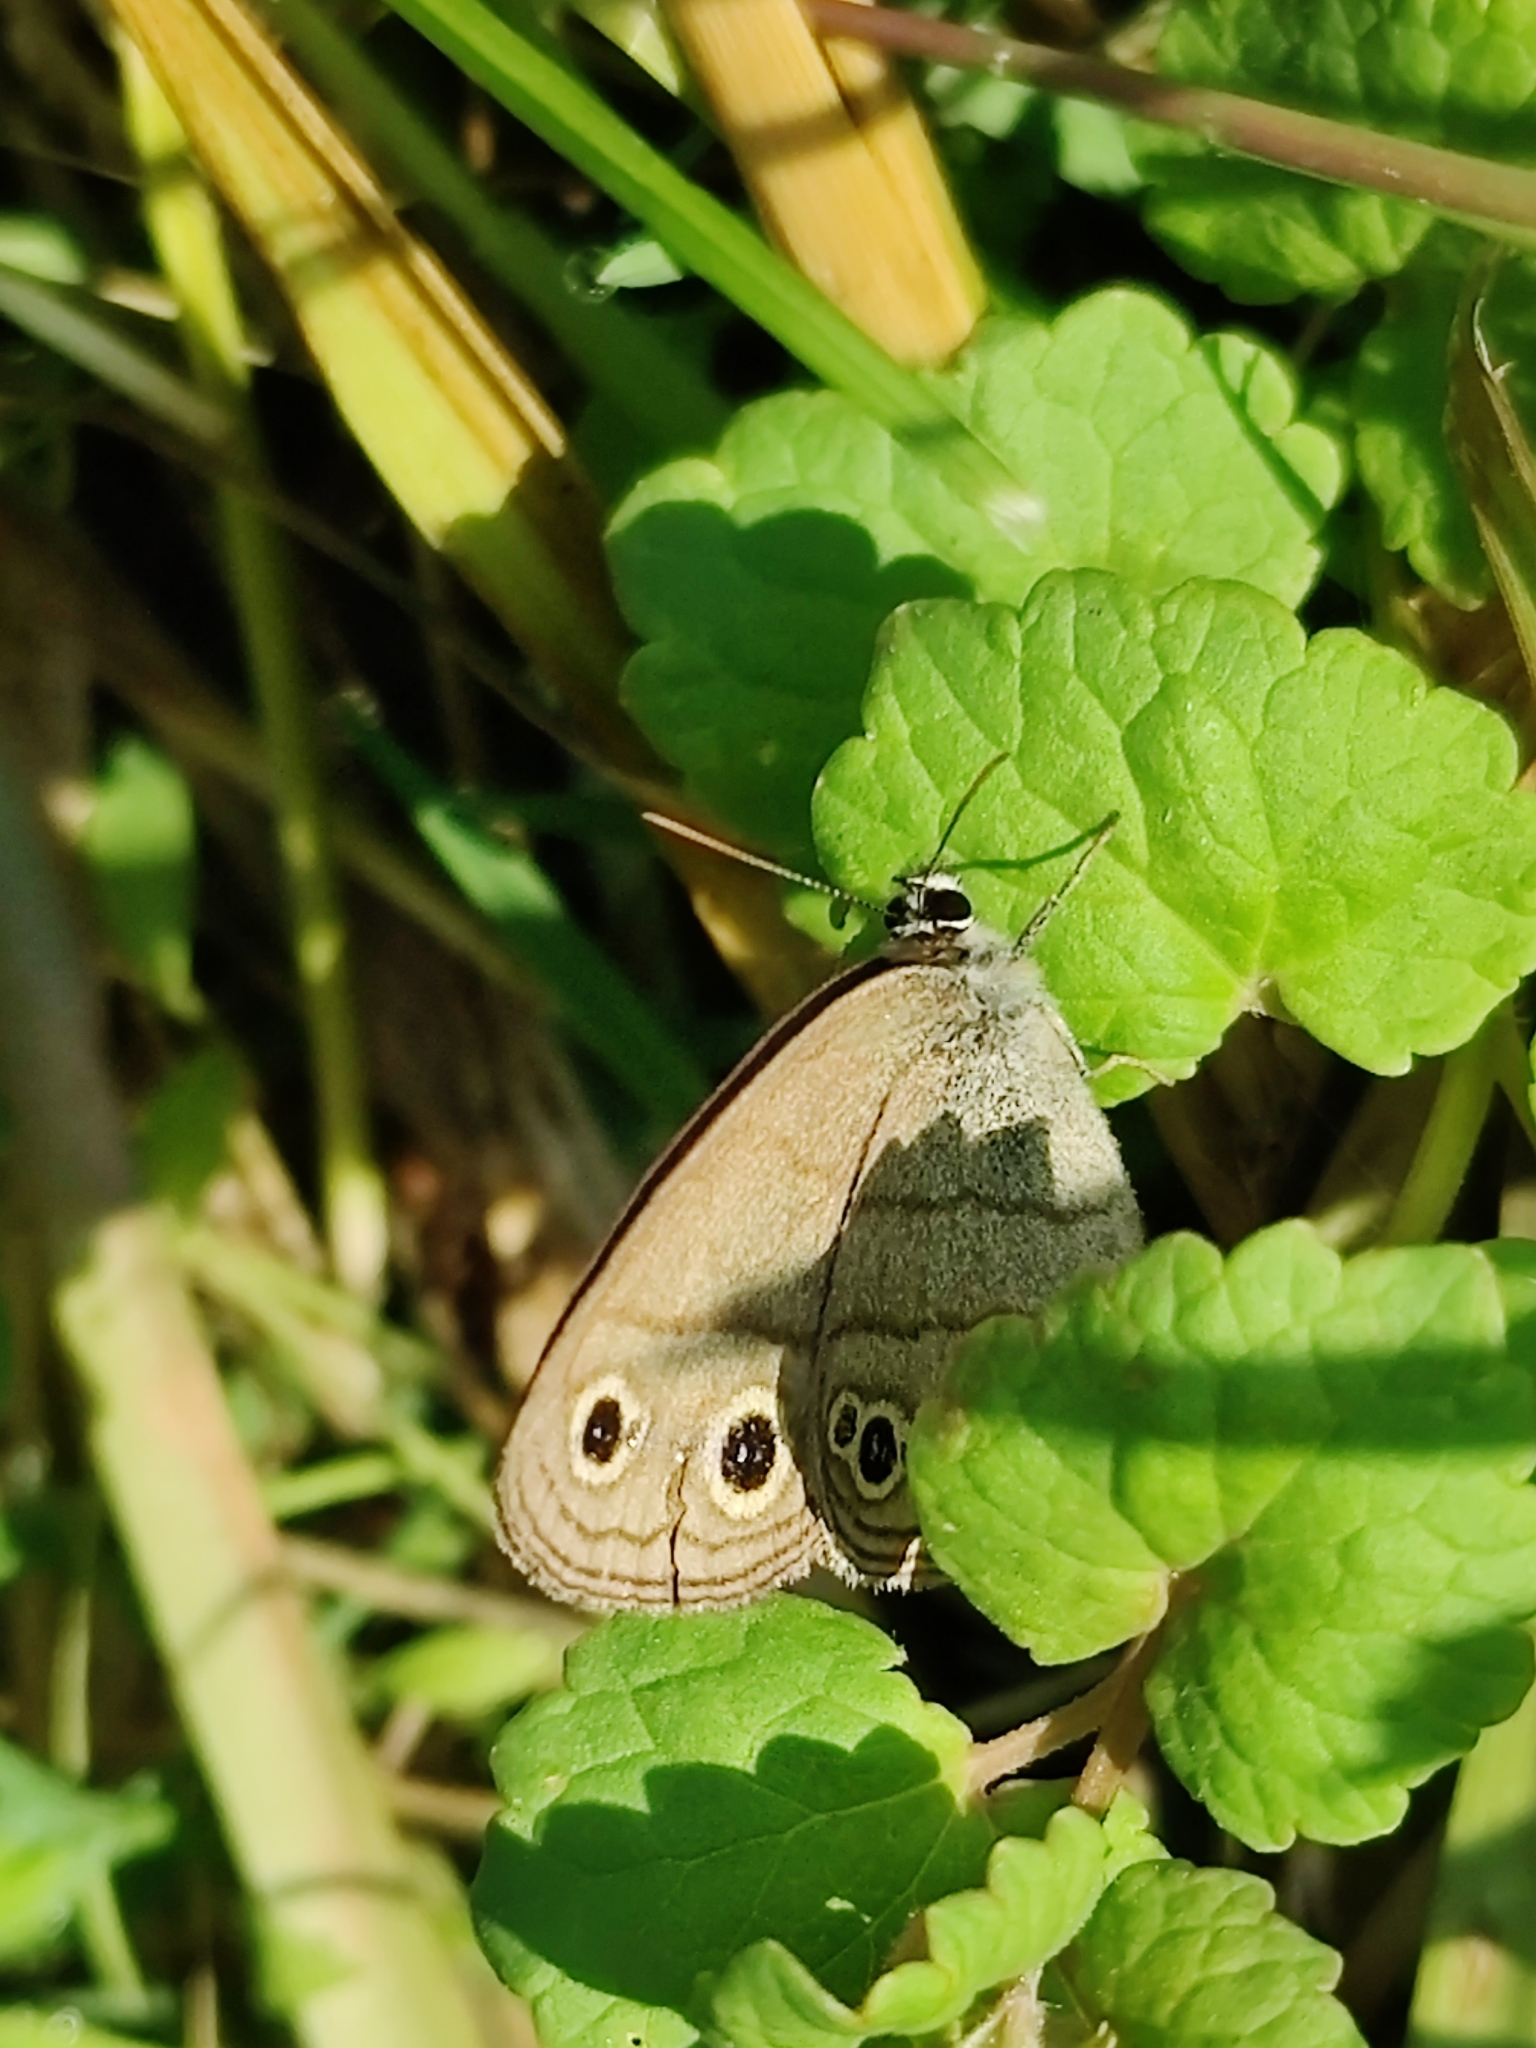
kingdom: Animalia
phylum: Arthropoda
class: Insecta
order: Lepidoptera
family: Nymphalidae
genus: Euptychia
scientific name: Euptychia cymela
